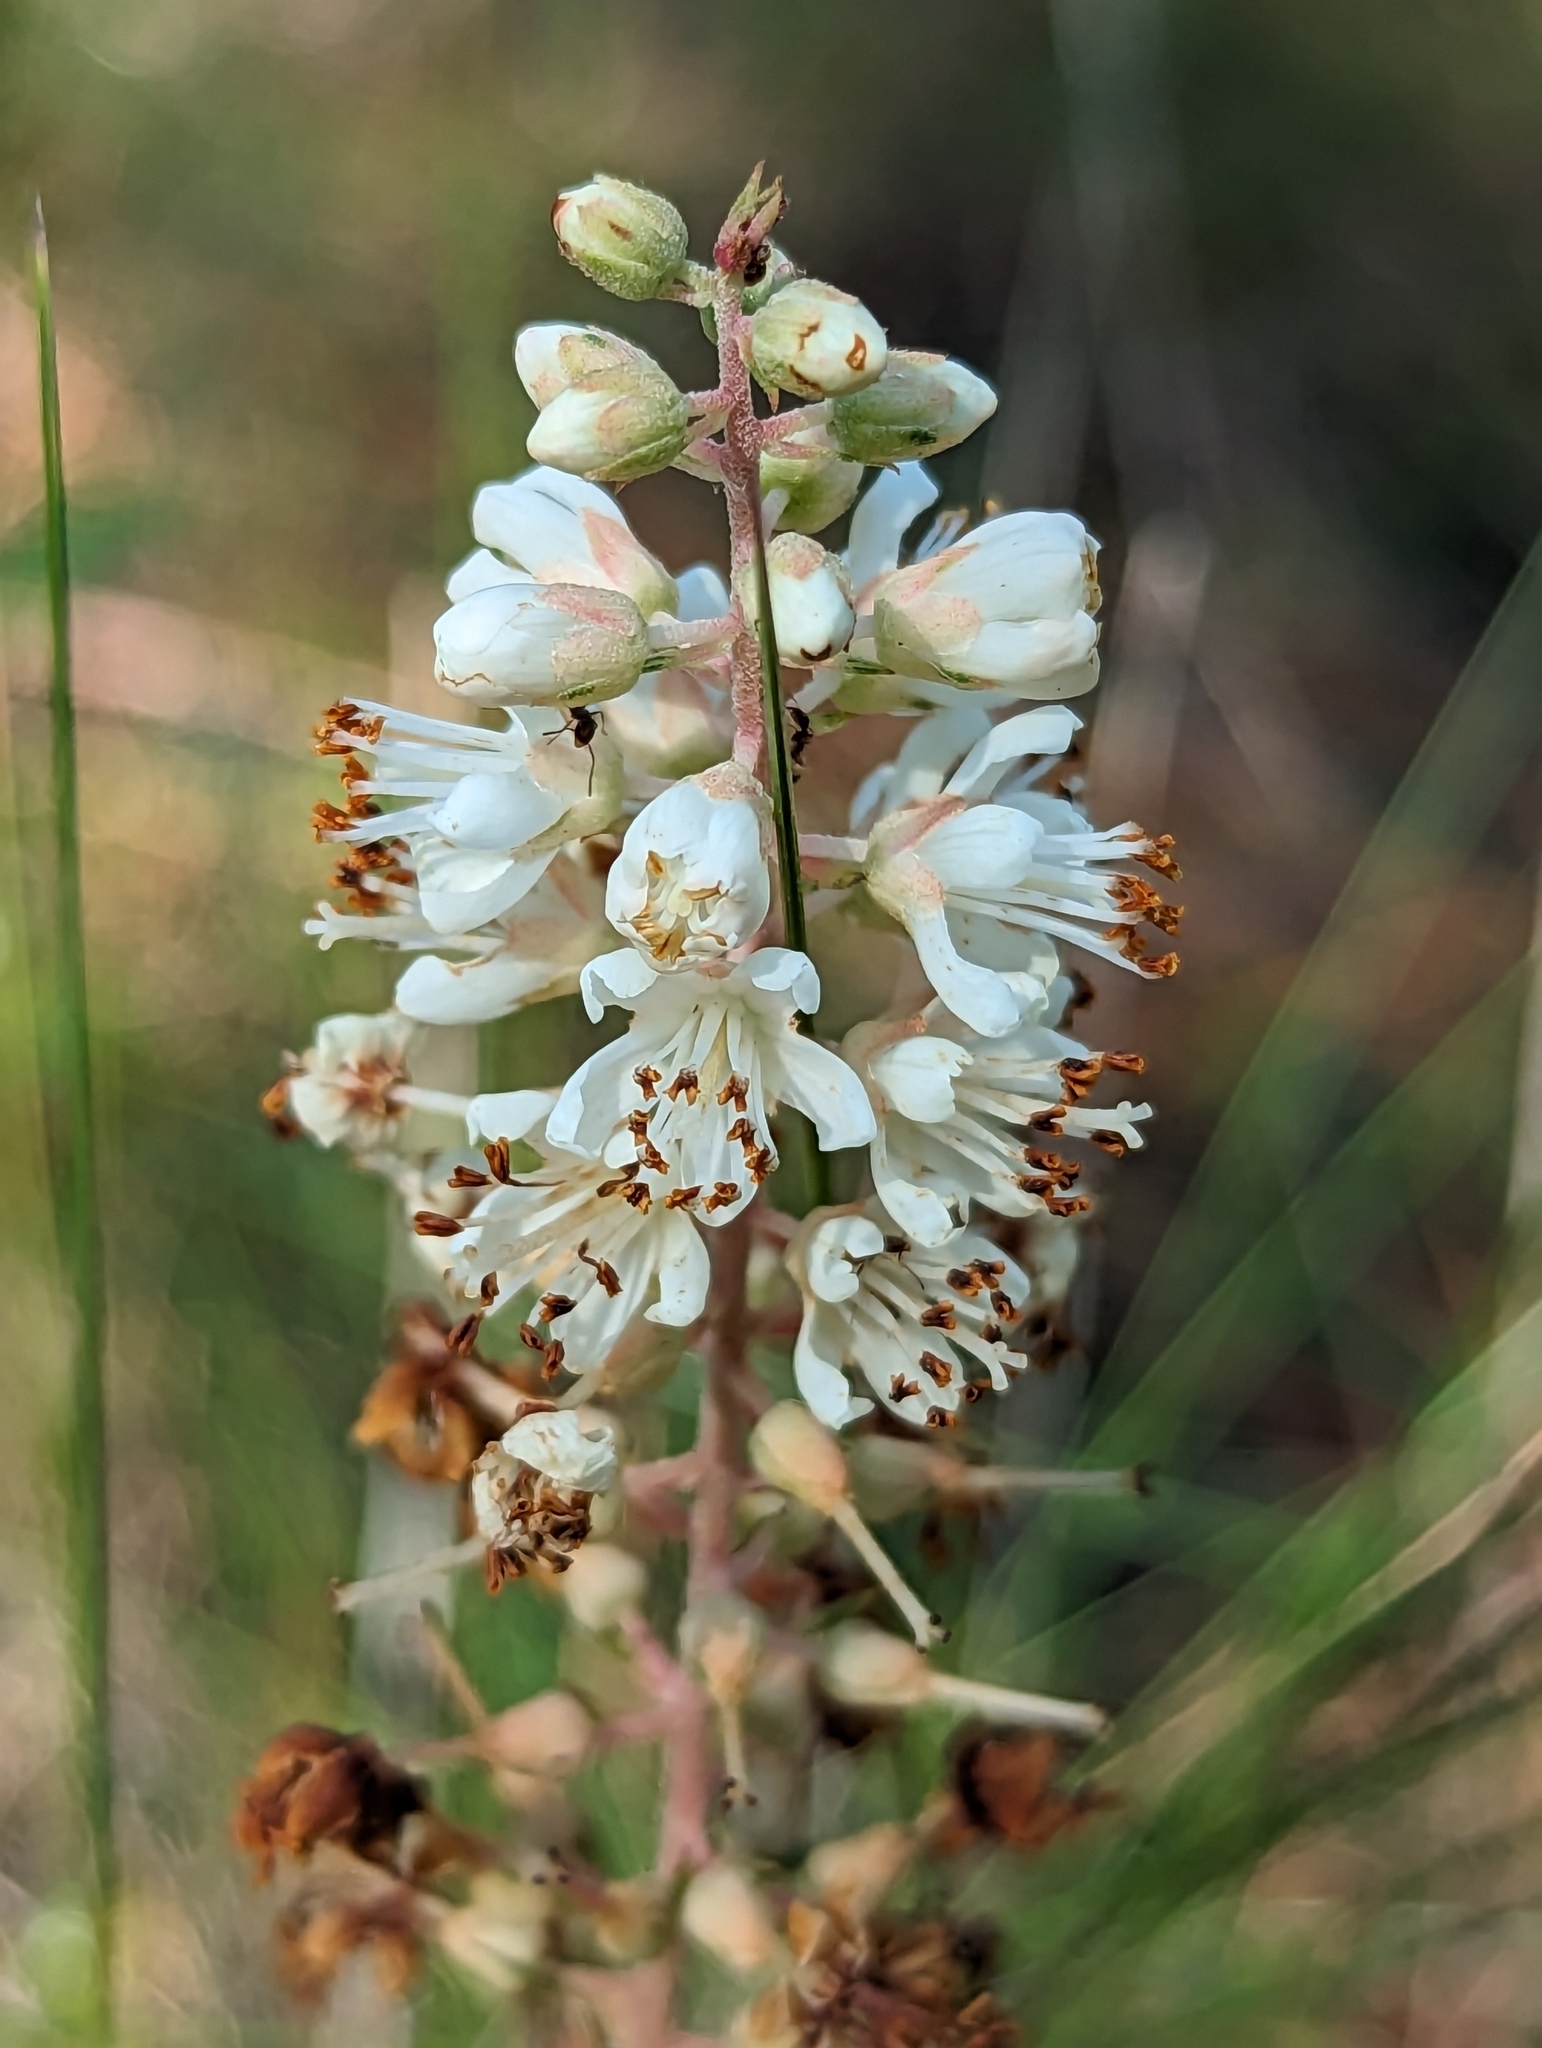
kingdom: Plantae
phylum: Tracheophyta
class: Magnoliopsida
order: Ericales
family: Clethraceae
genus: Clethra
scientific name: Clethra alnifolia
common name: Sweet pepperbush
